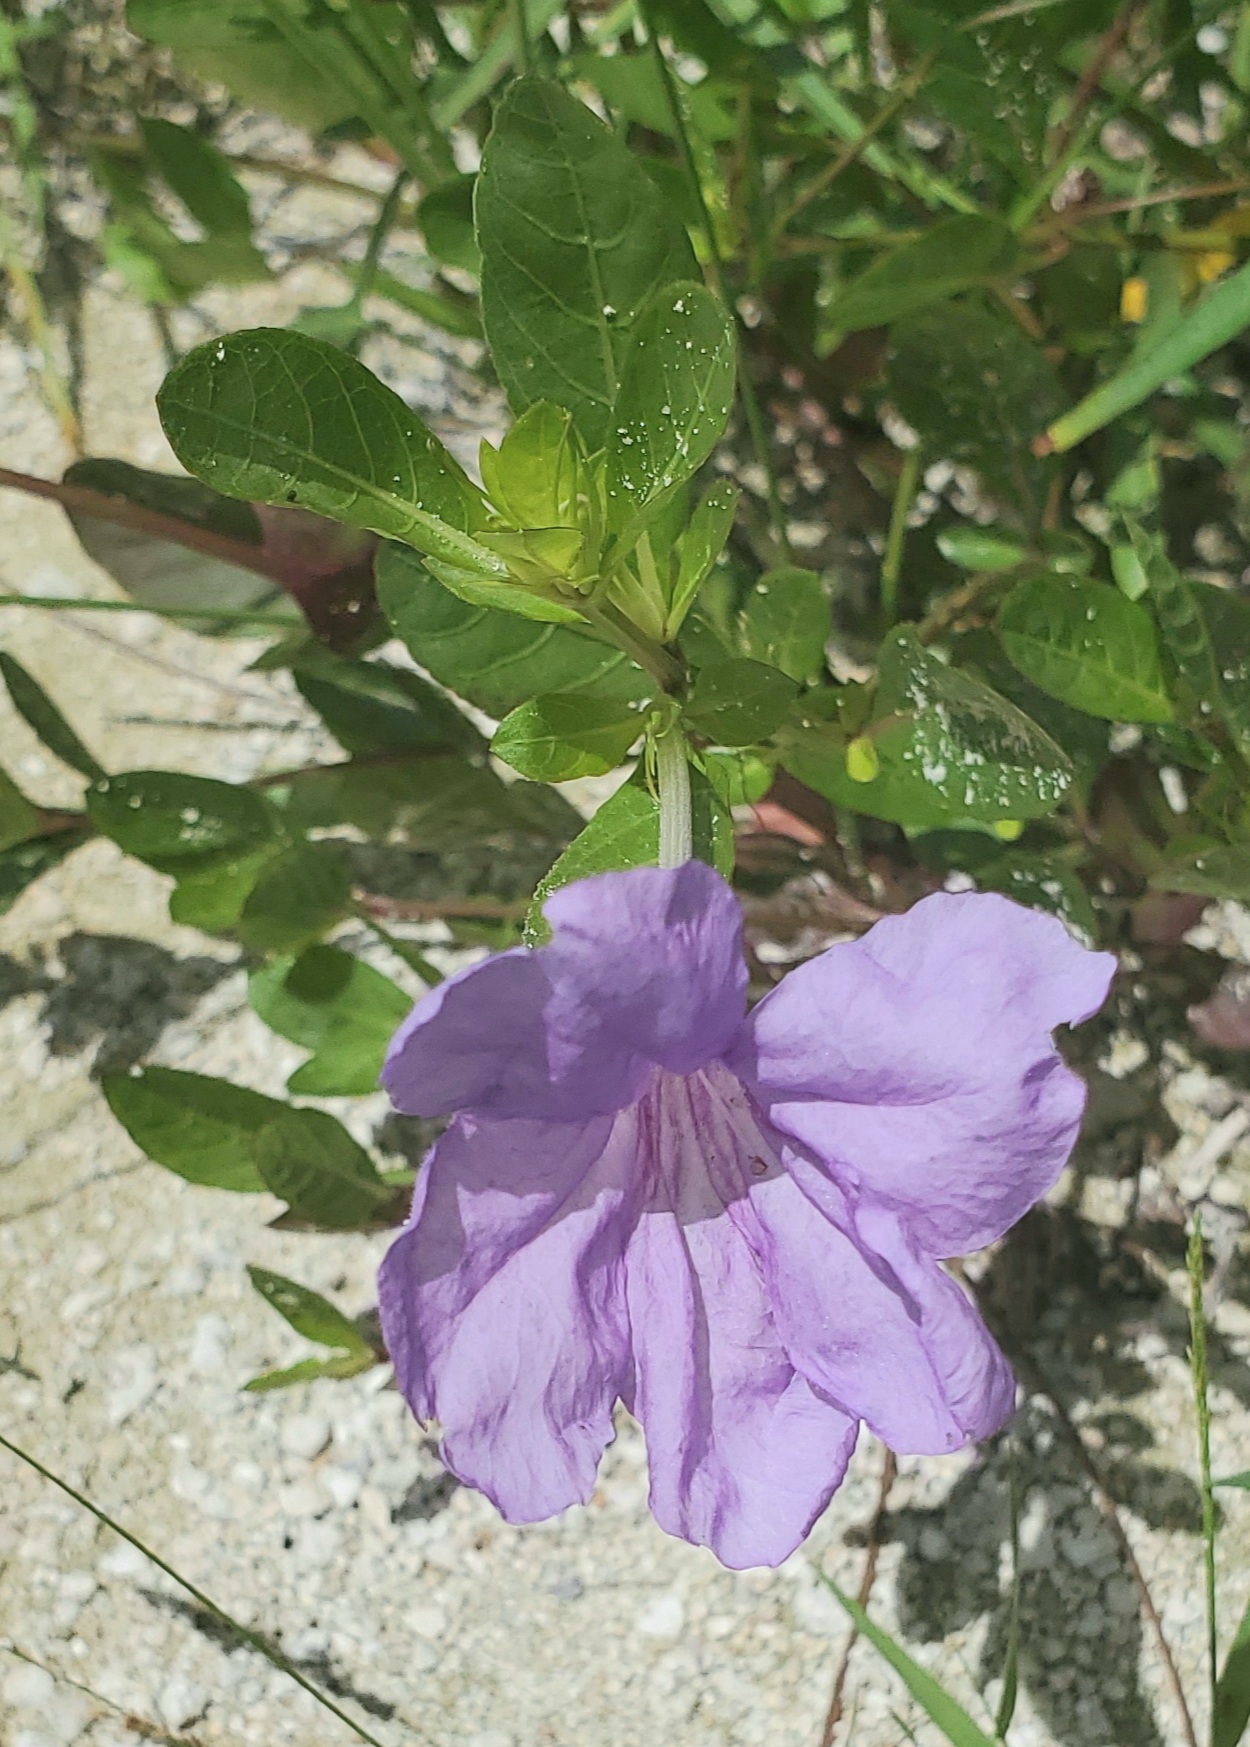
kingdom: Plantae
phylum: Tracheophyta
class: Magnoliopsida
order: Lamiales
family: Acanthaceae
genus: Ruellia
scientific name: Ruellia caroliniensis
